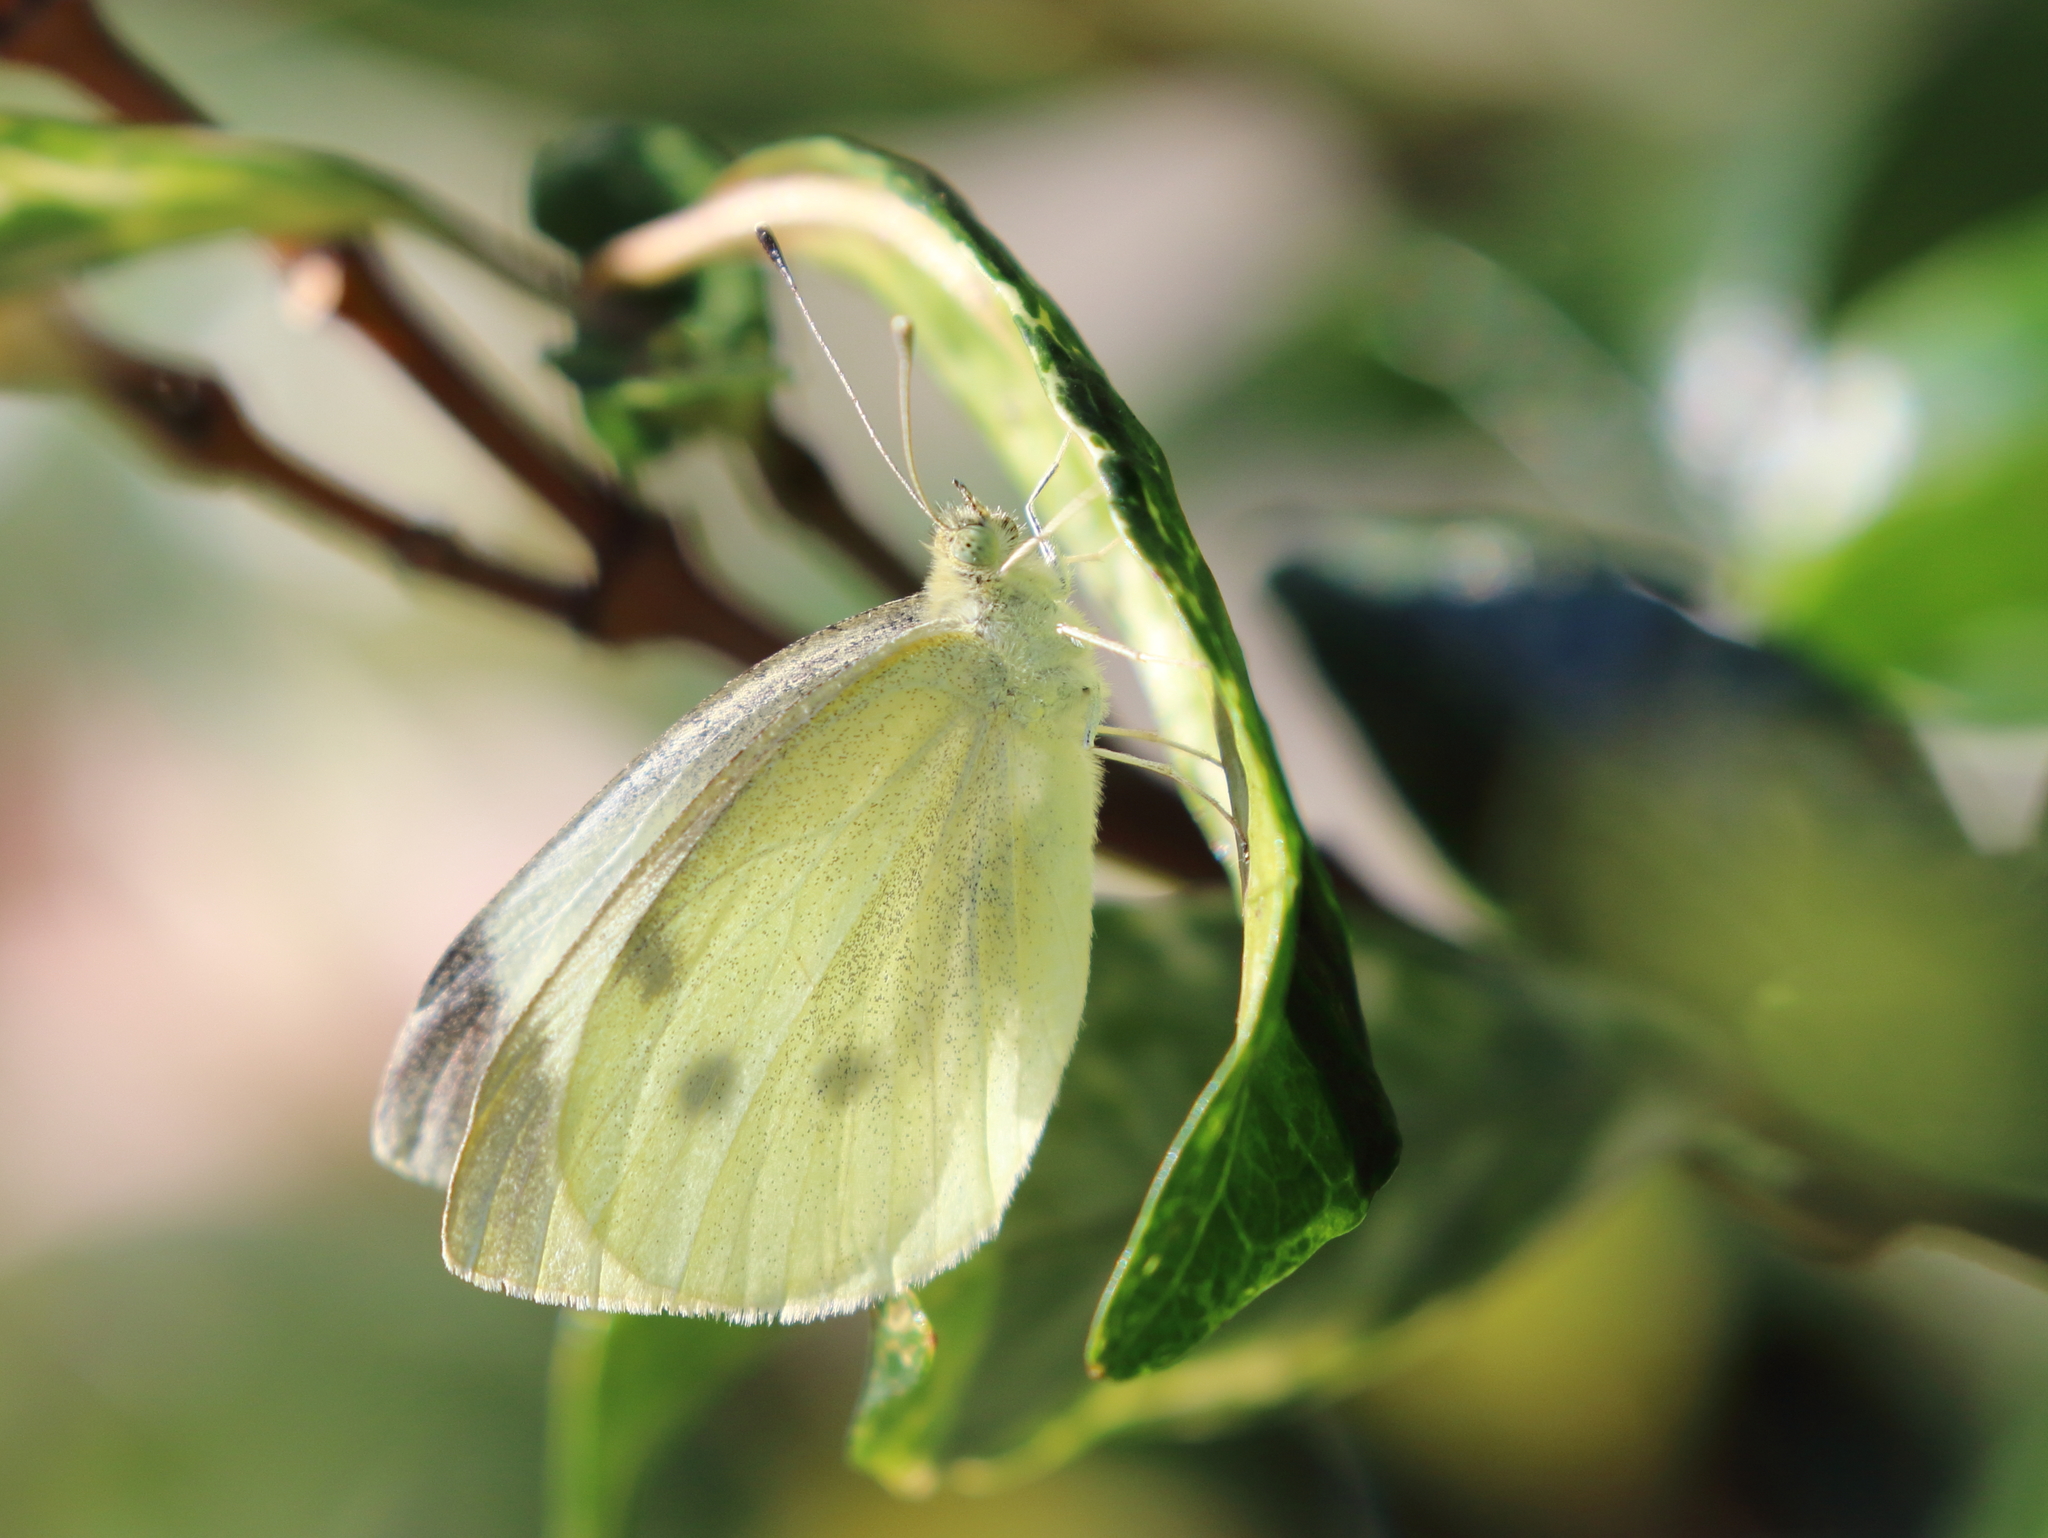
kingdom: Animalia
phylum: Arthropoda
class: Insecta
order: Lepidoptera
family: Pieridae
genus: Pieris
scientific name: Pieris rapae
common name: Small white
